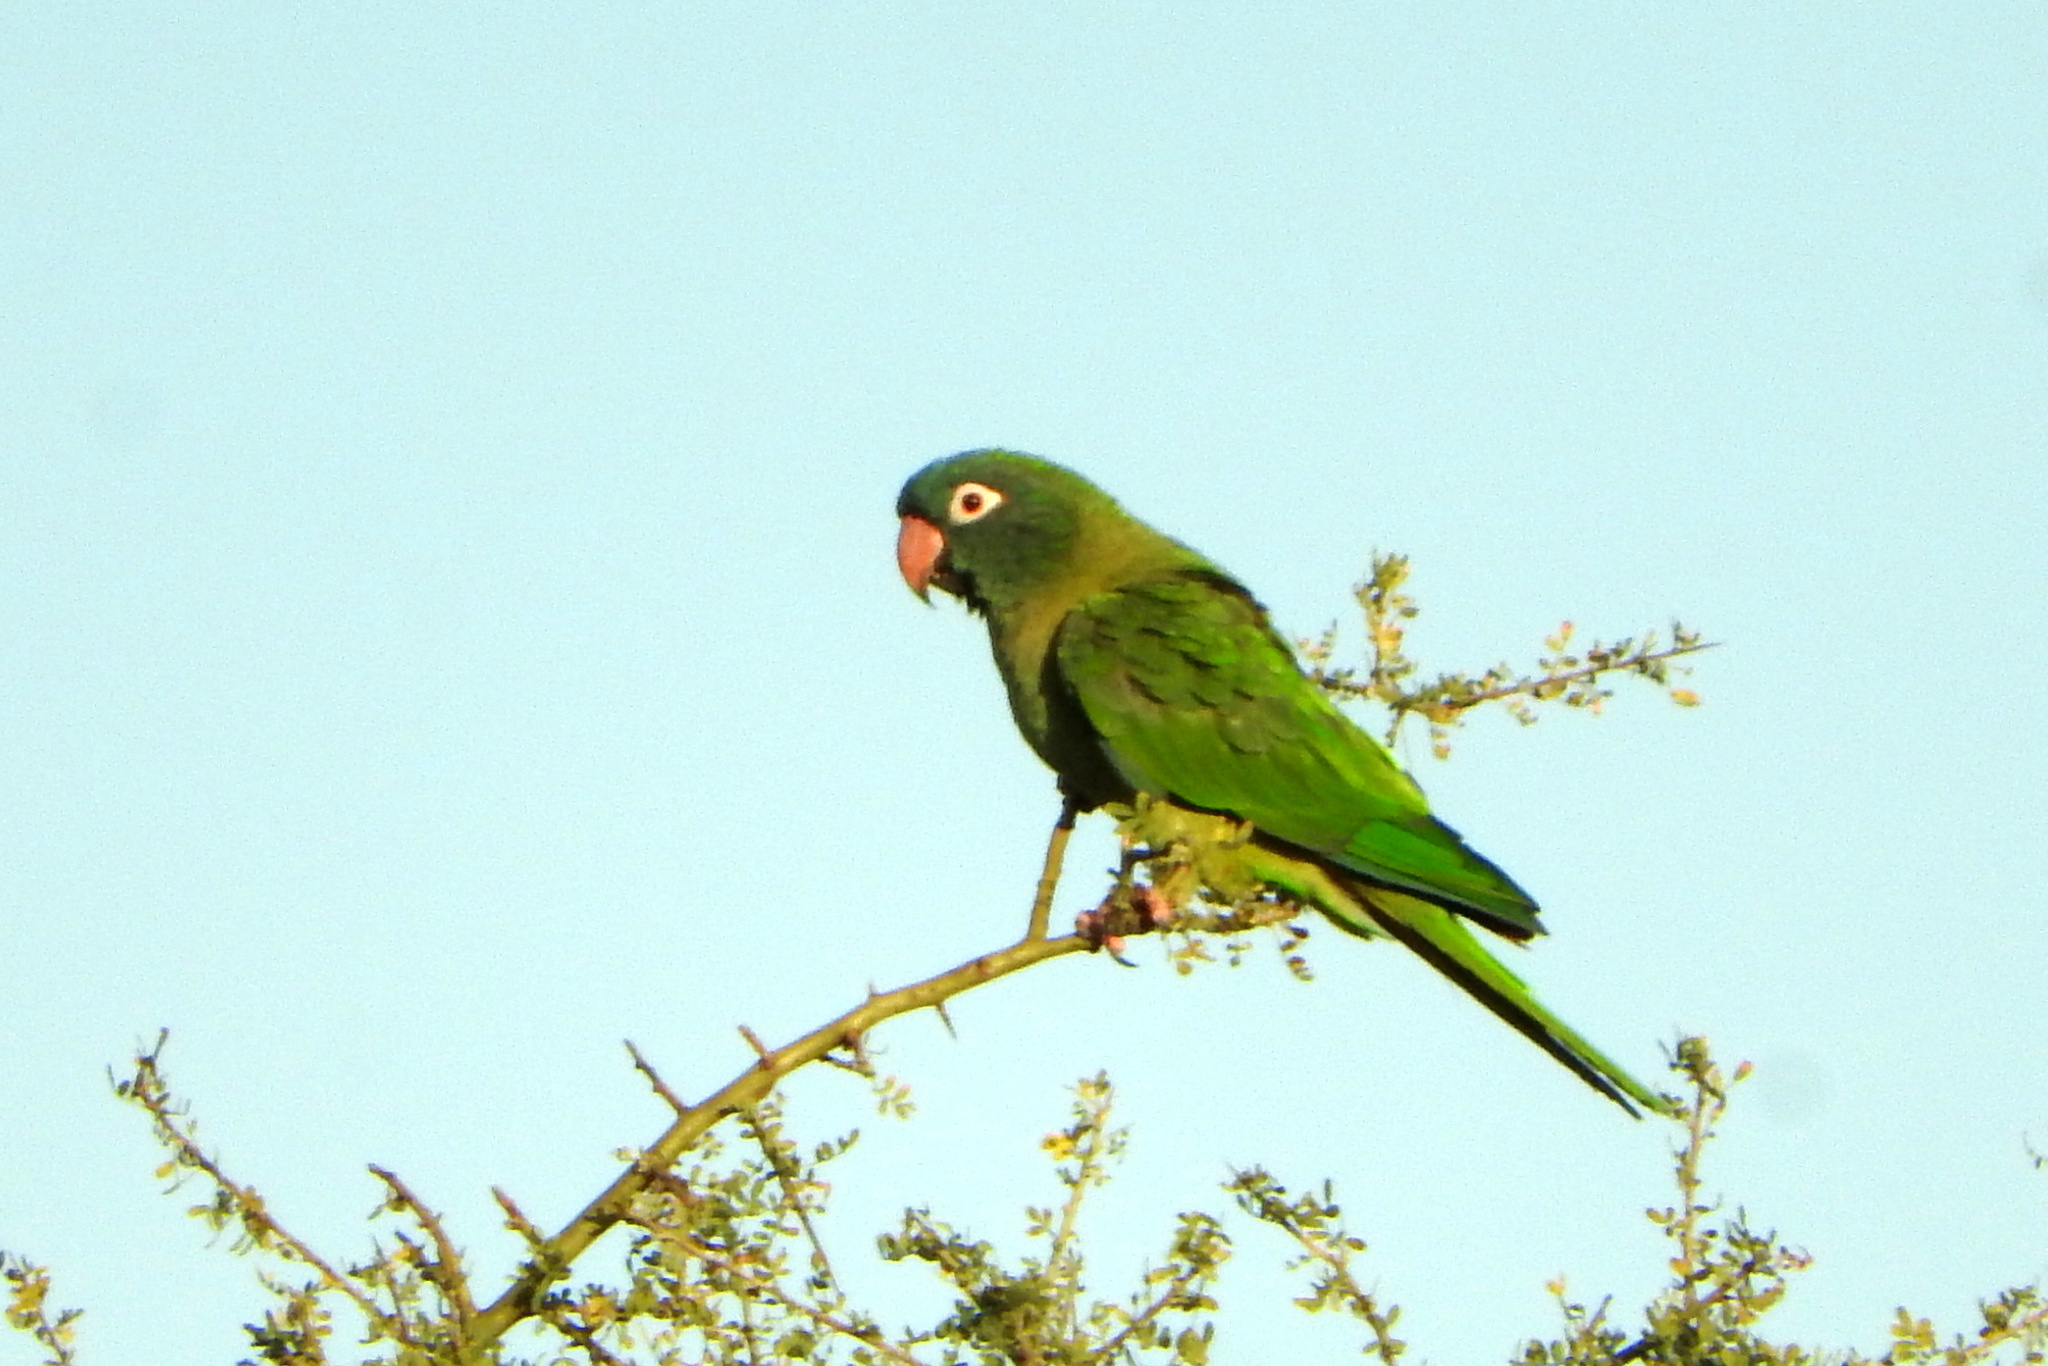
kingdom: Animalia
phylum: Chordata
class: Aves
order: Psittaciformes
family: Psittacidae
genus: Aratinga
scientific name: Aratinga acuticaudata
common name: Blue-crowned parakeet
